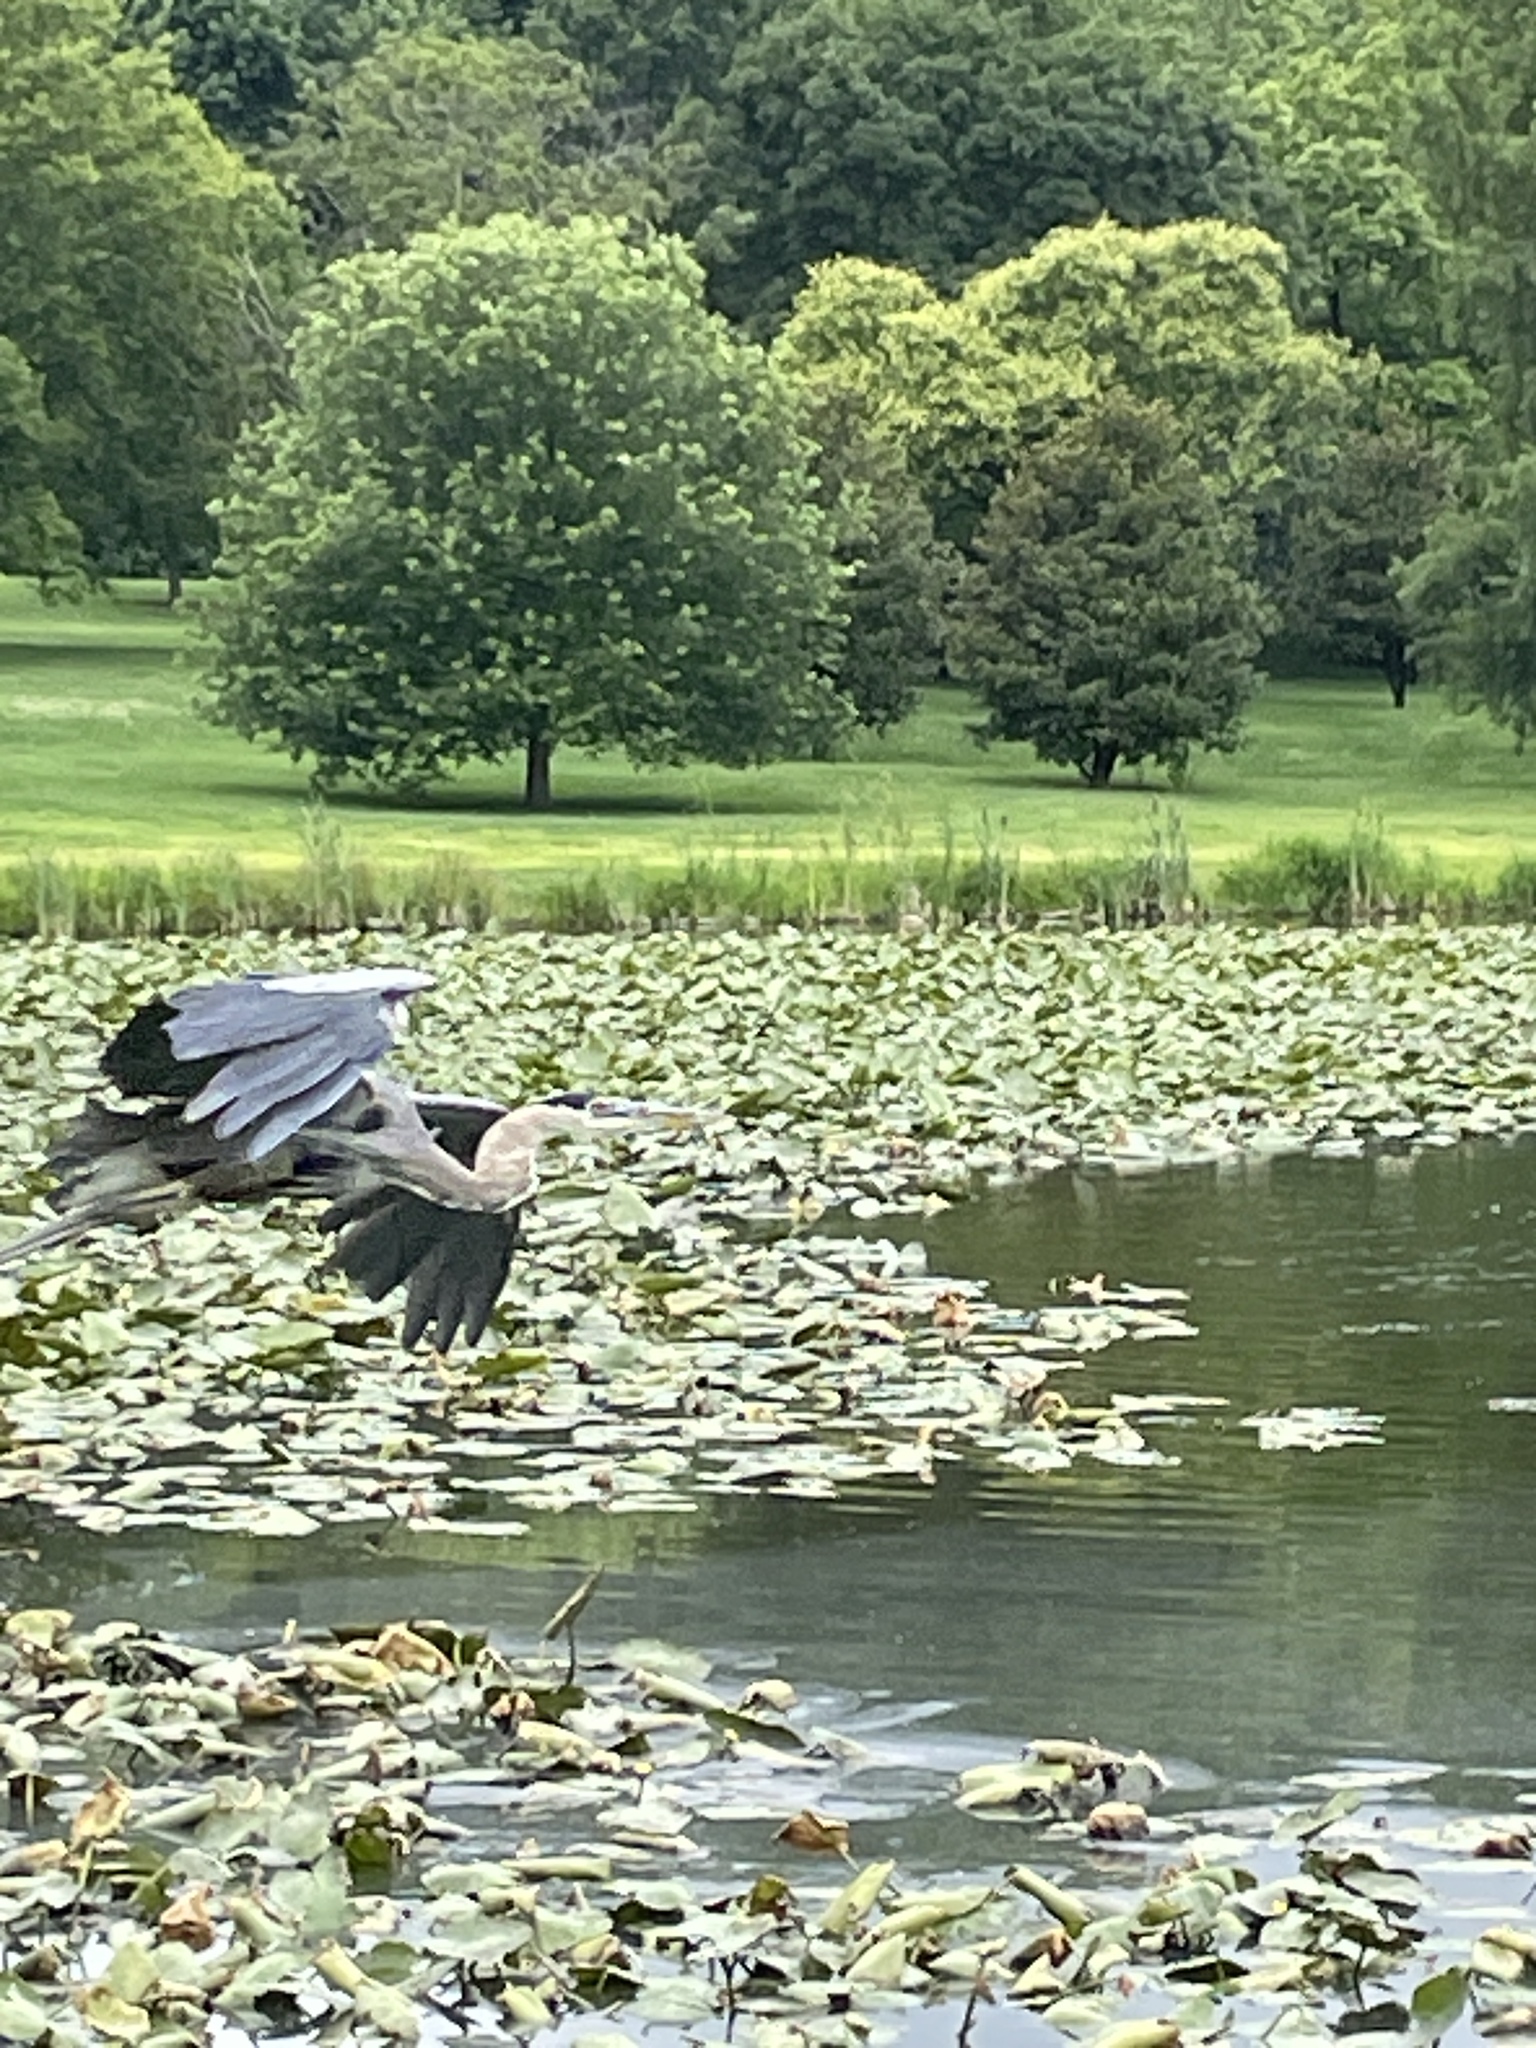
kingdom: Animalia
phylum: Chordata
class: Aves
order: Pelecaniformes
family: Ardeidae
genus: Ardea
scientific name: Ardea herodias
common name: Great blue heron
